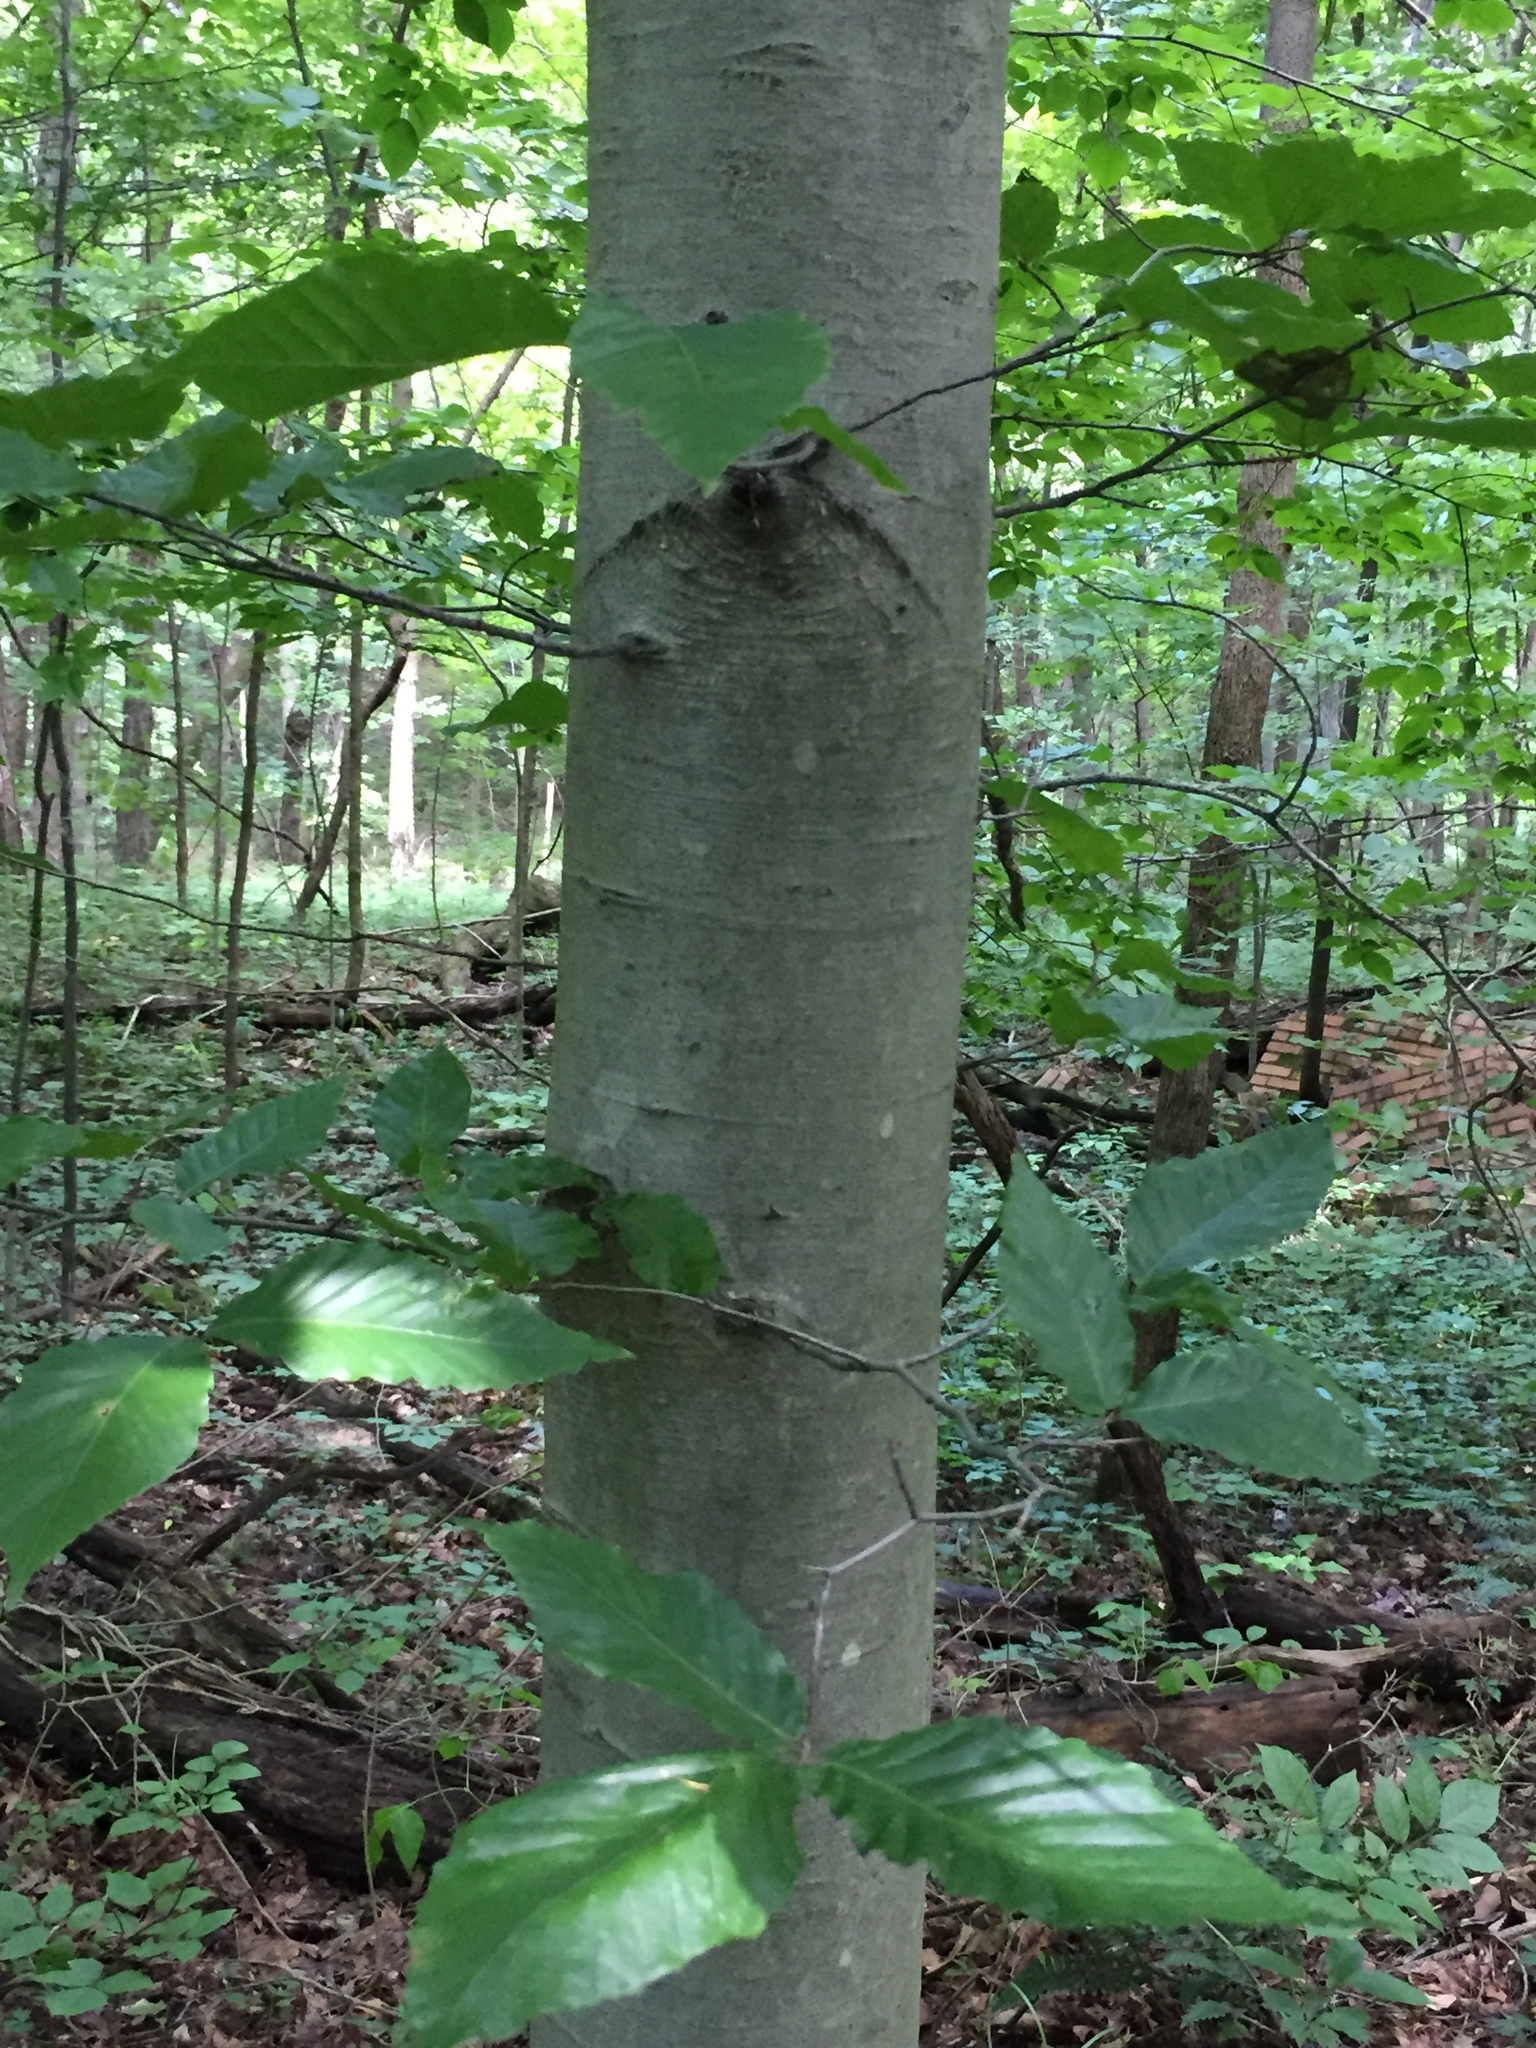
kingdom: Plantae
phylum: Tracheophyta
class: Magnoliopsida
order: Fagales
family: Fagaceae
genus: Fagus
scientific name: Fagus grandifolia
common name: American beech
